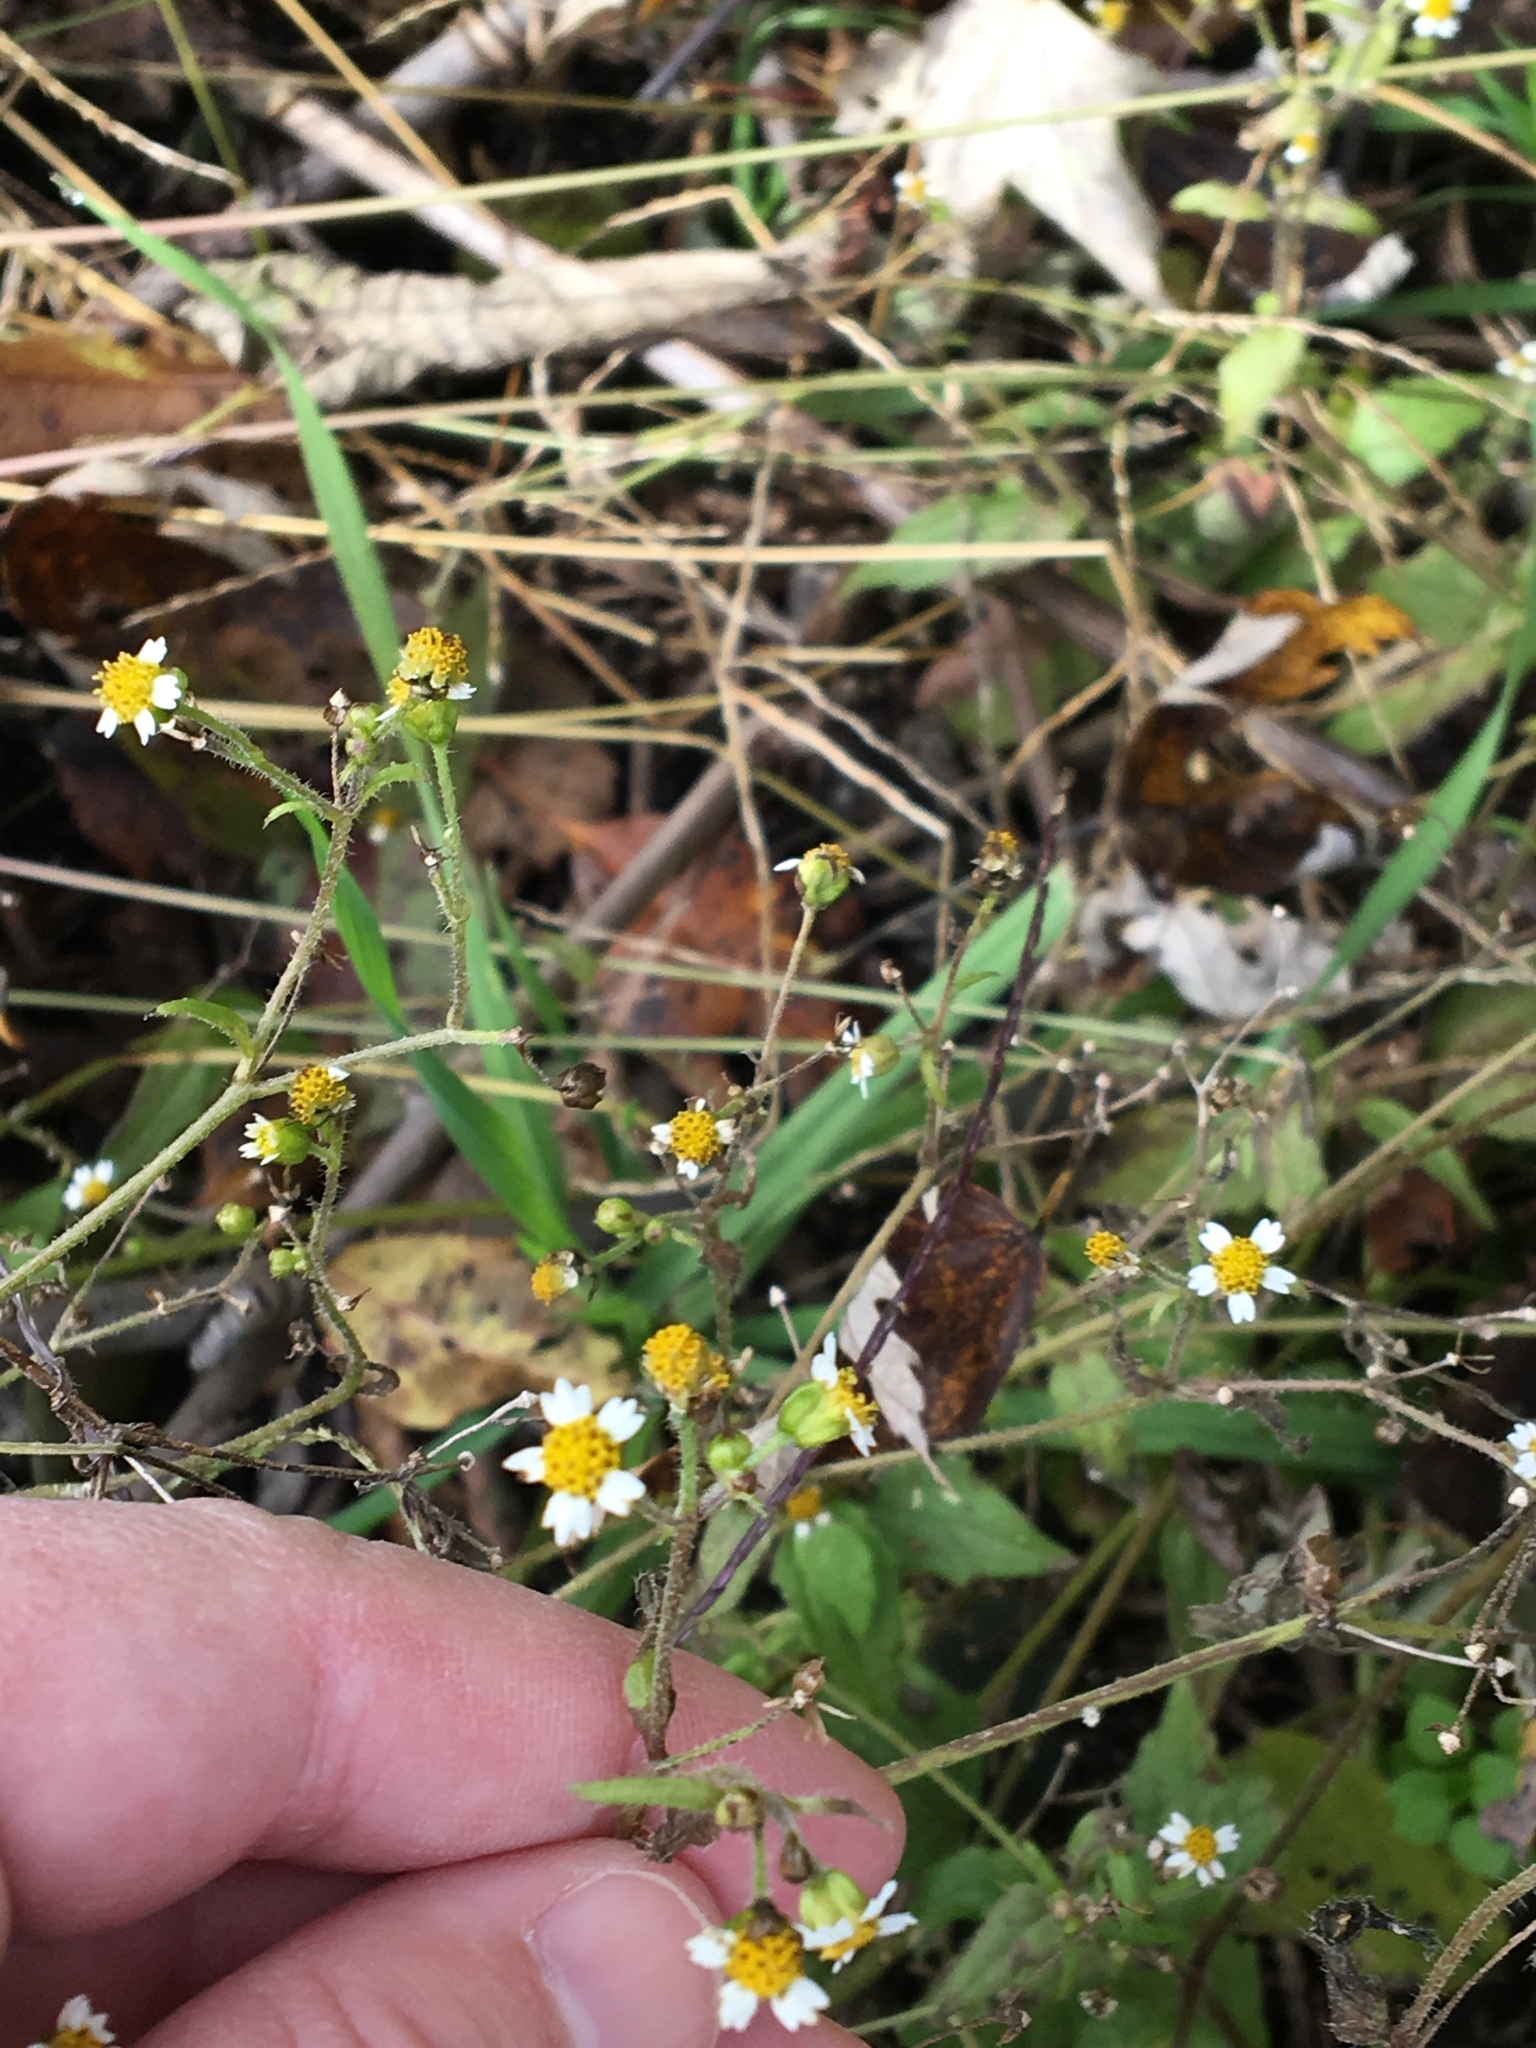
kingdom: Plantae
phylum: Tracheophyta
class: Magnoliopsida
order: Asterales
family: Asteraceae
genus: Galinsoga
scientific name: Galinsoga quadriradiata
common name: Shaggy soldier
